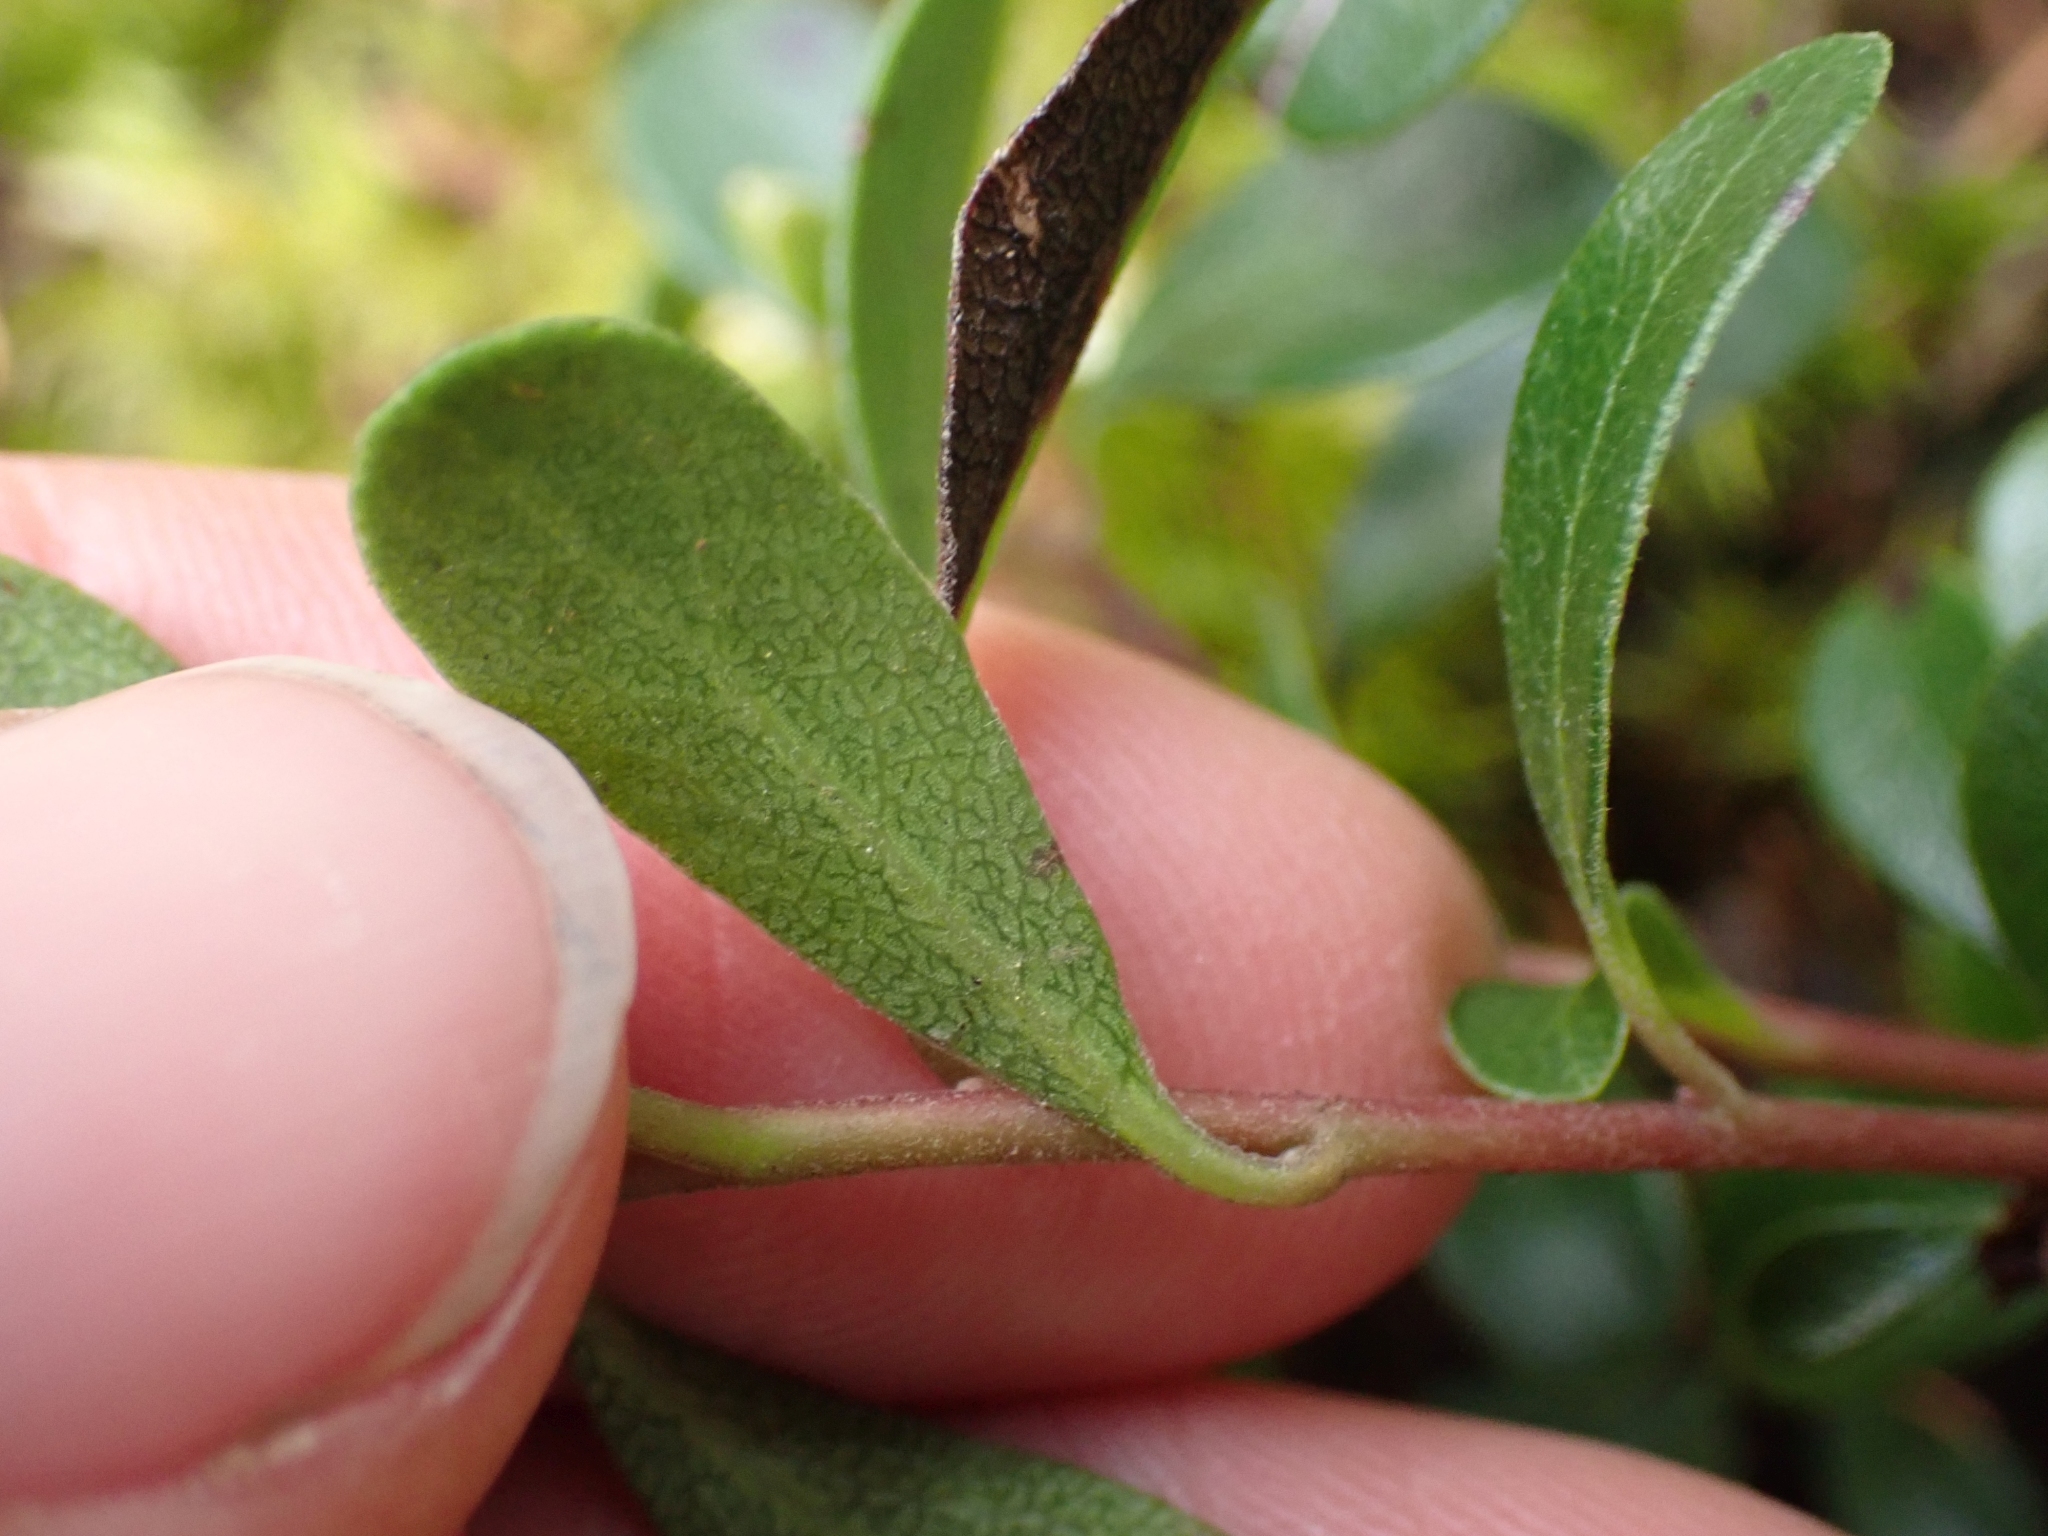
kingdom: Plantae
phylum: Tracheophyta
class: Magnoliopsida
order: Ericales
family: Ericaceae
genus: Arctostaphylos
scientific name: Arctostaphylos uva-ursi
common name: Bearberry
